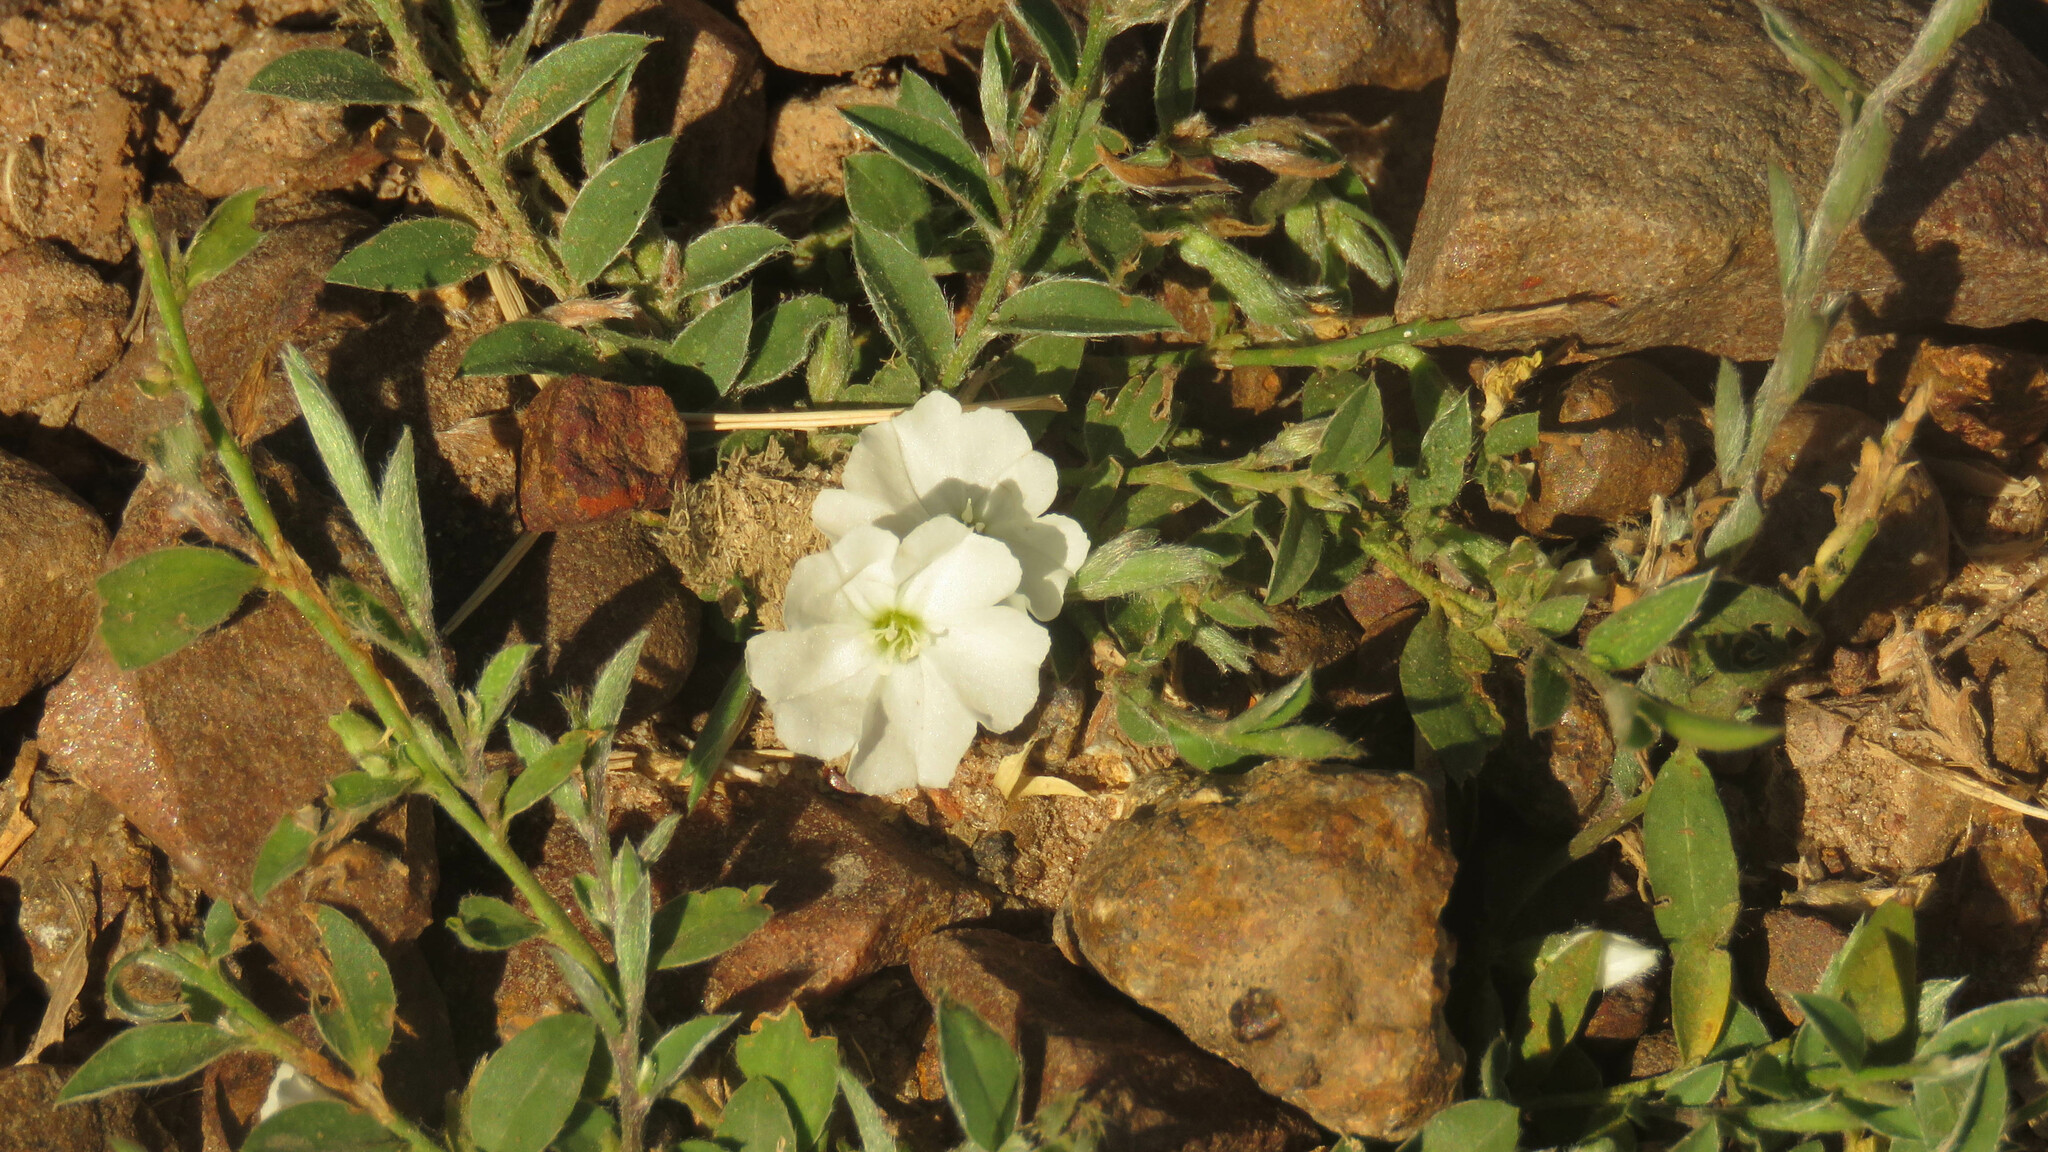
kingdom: Plantae
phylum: Tracheophyta
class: Magnoliopsida
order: Solanales
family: Convolvulaceae
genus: Evolvulus
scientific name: Evolvulus sericeus
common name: Blue dots
